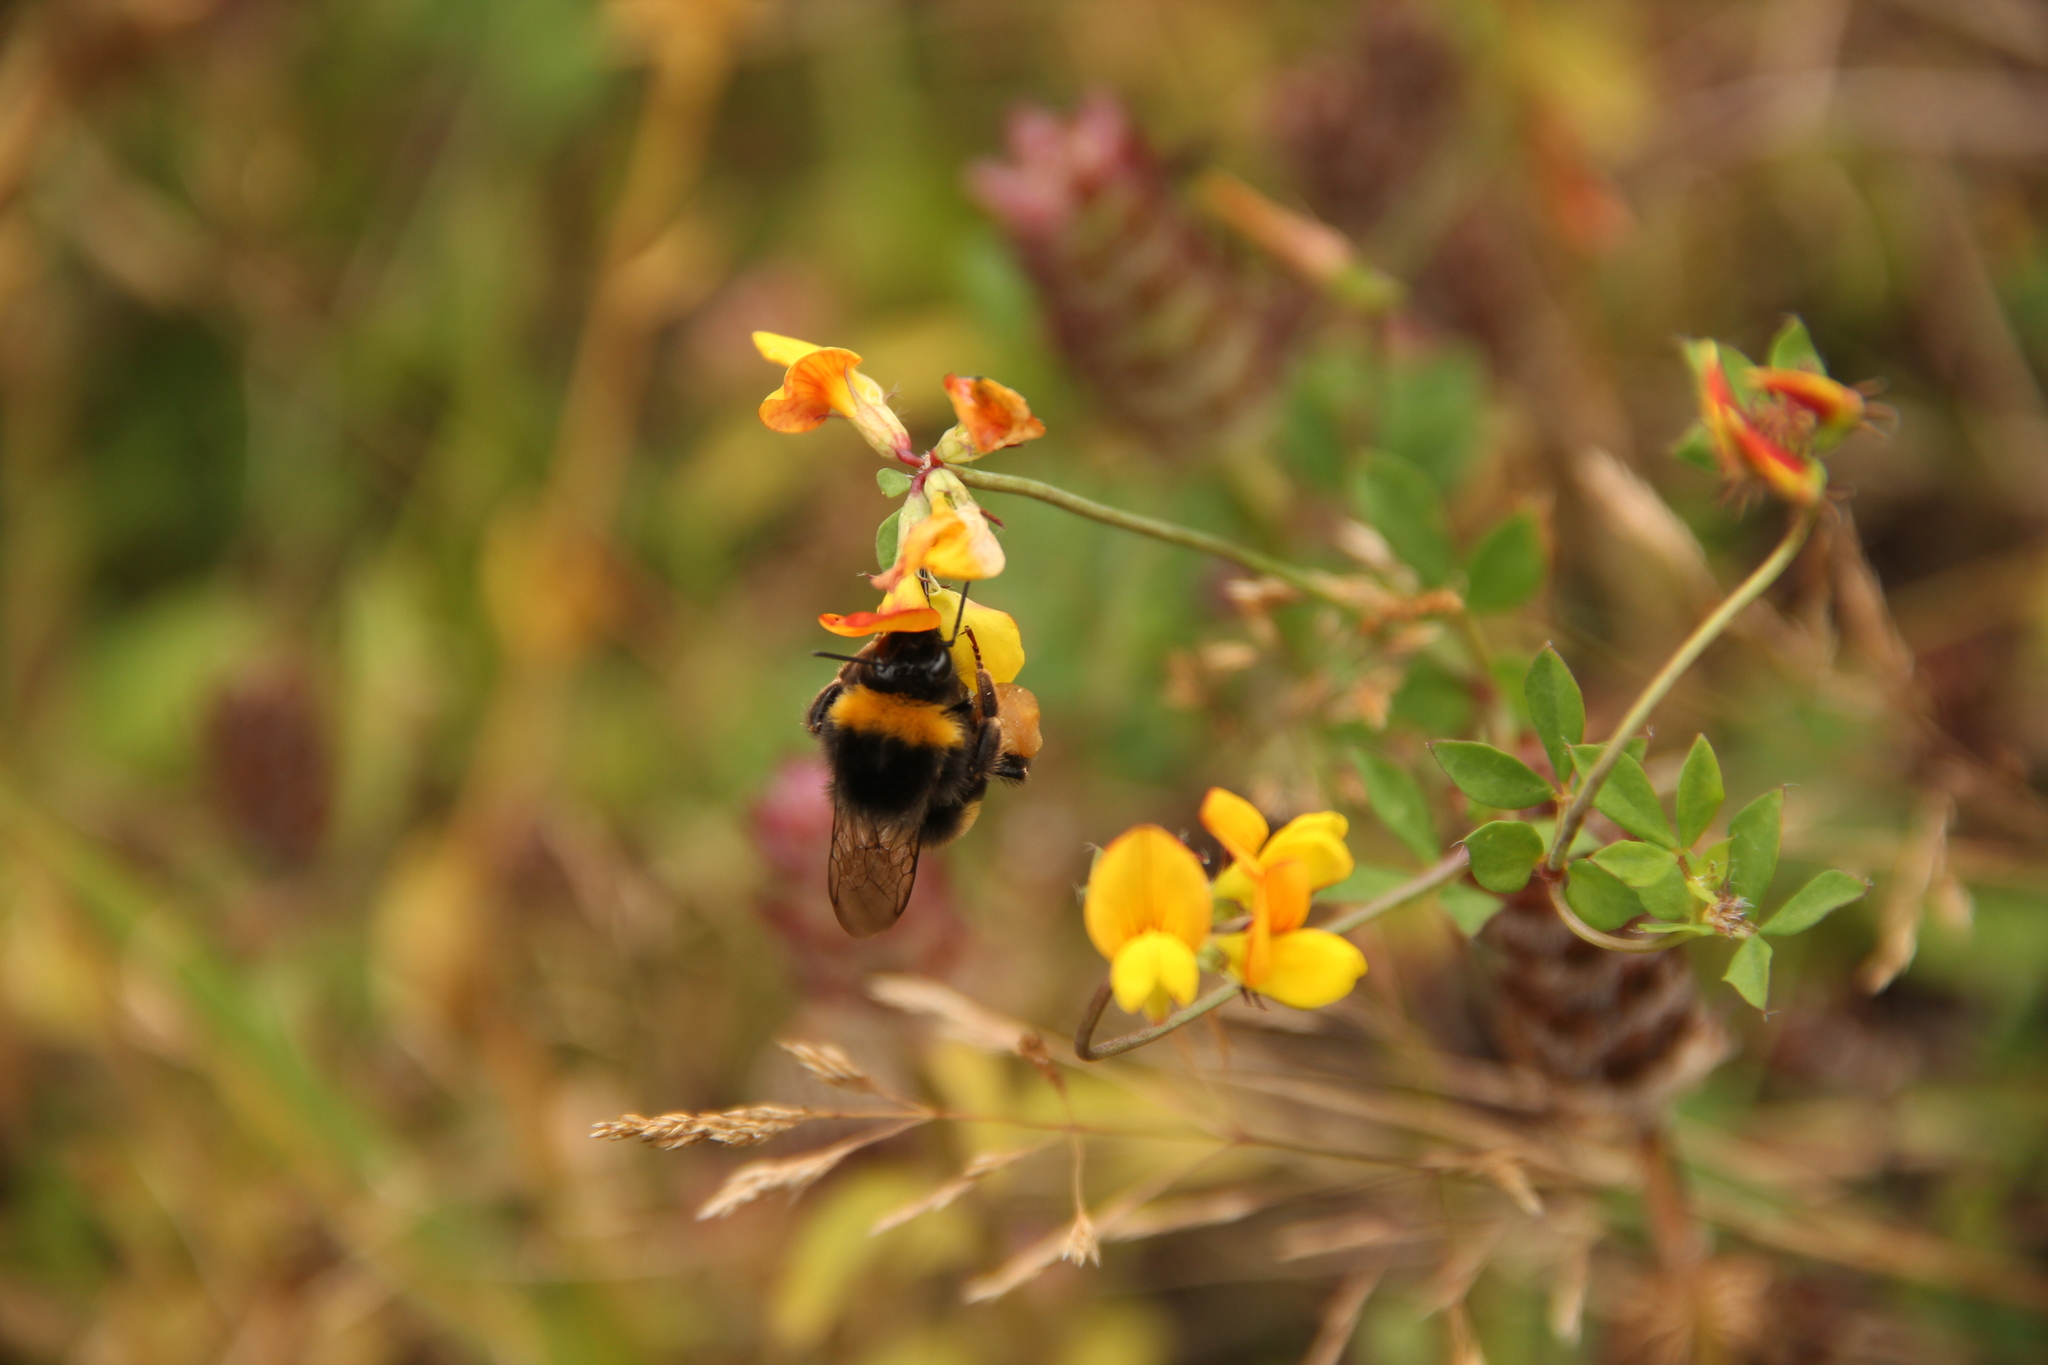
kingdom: Animalia
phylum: Arthropoda
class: Insecta
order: Hymenoptera
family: Apidae
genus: Bombus
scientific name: Bombus terrestris
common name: Buff-tailed bumblebee
